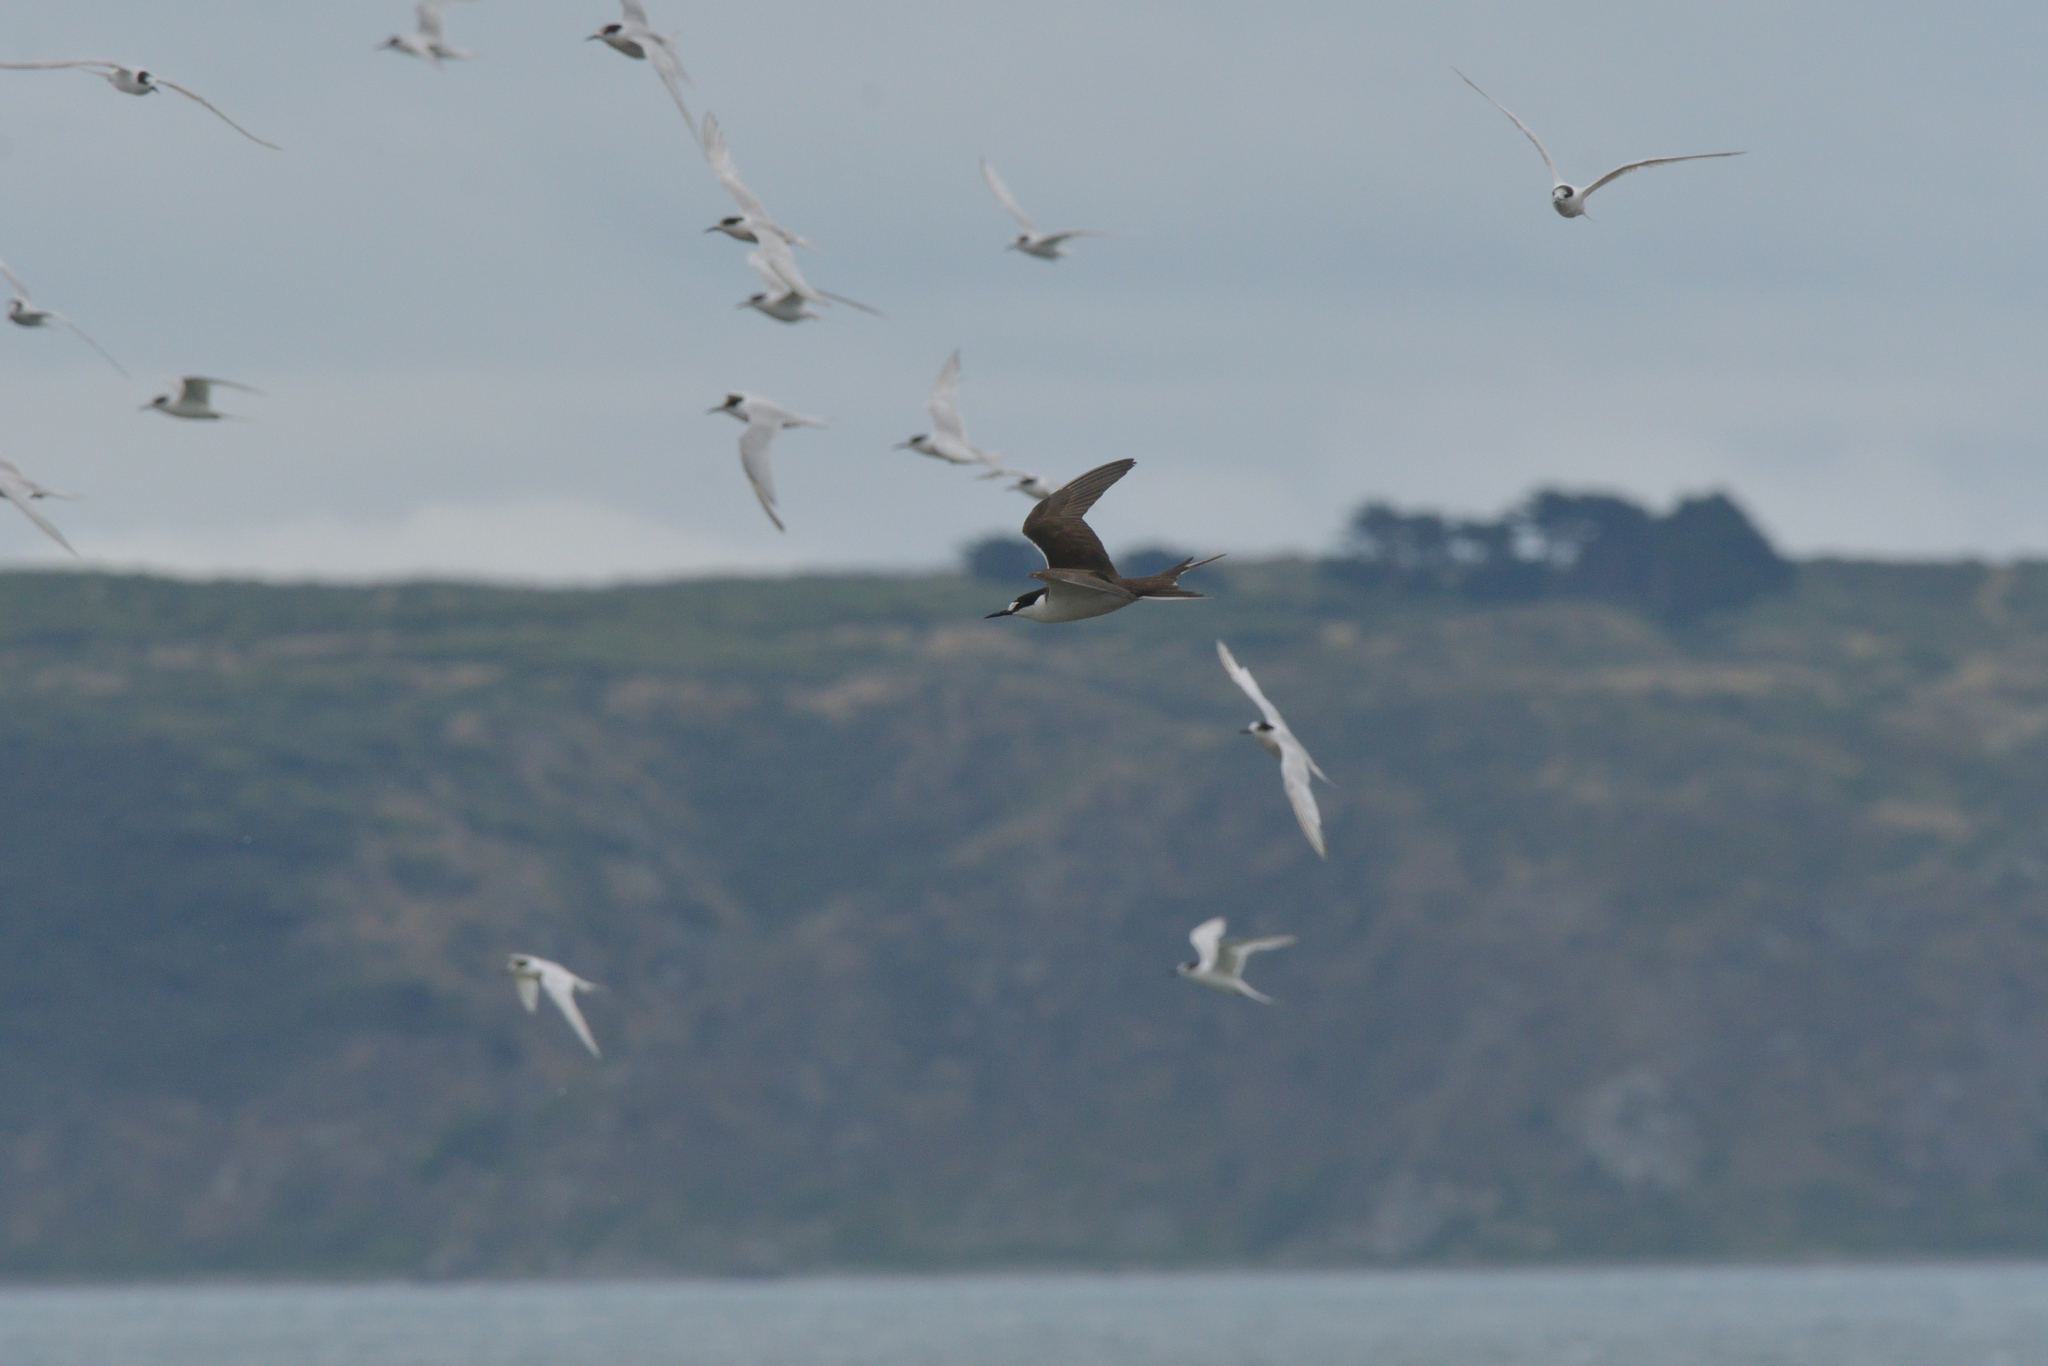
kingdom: Animalia
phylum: Chordata
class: Aves
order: Charadriiformes
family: Laridae
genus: Onychoprion
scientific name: Onychoprion fuscatus
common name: Sooty tern
